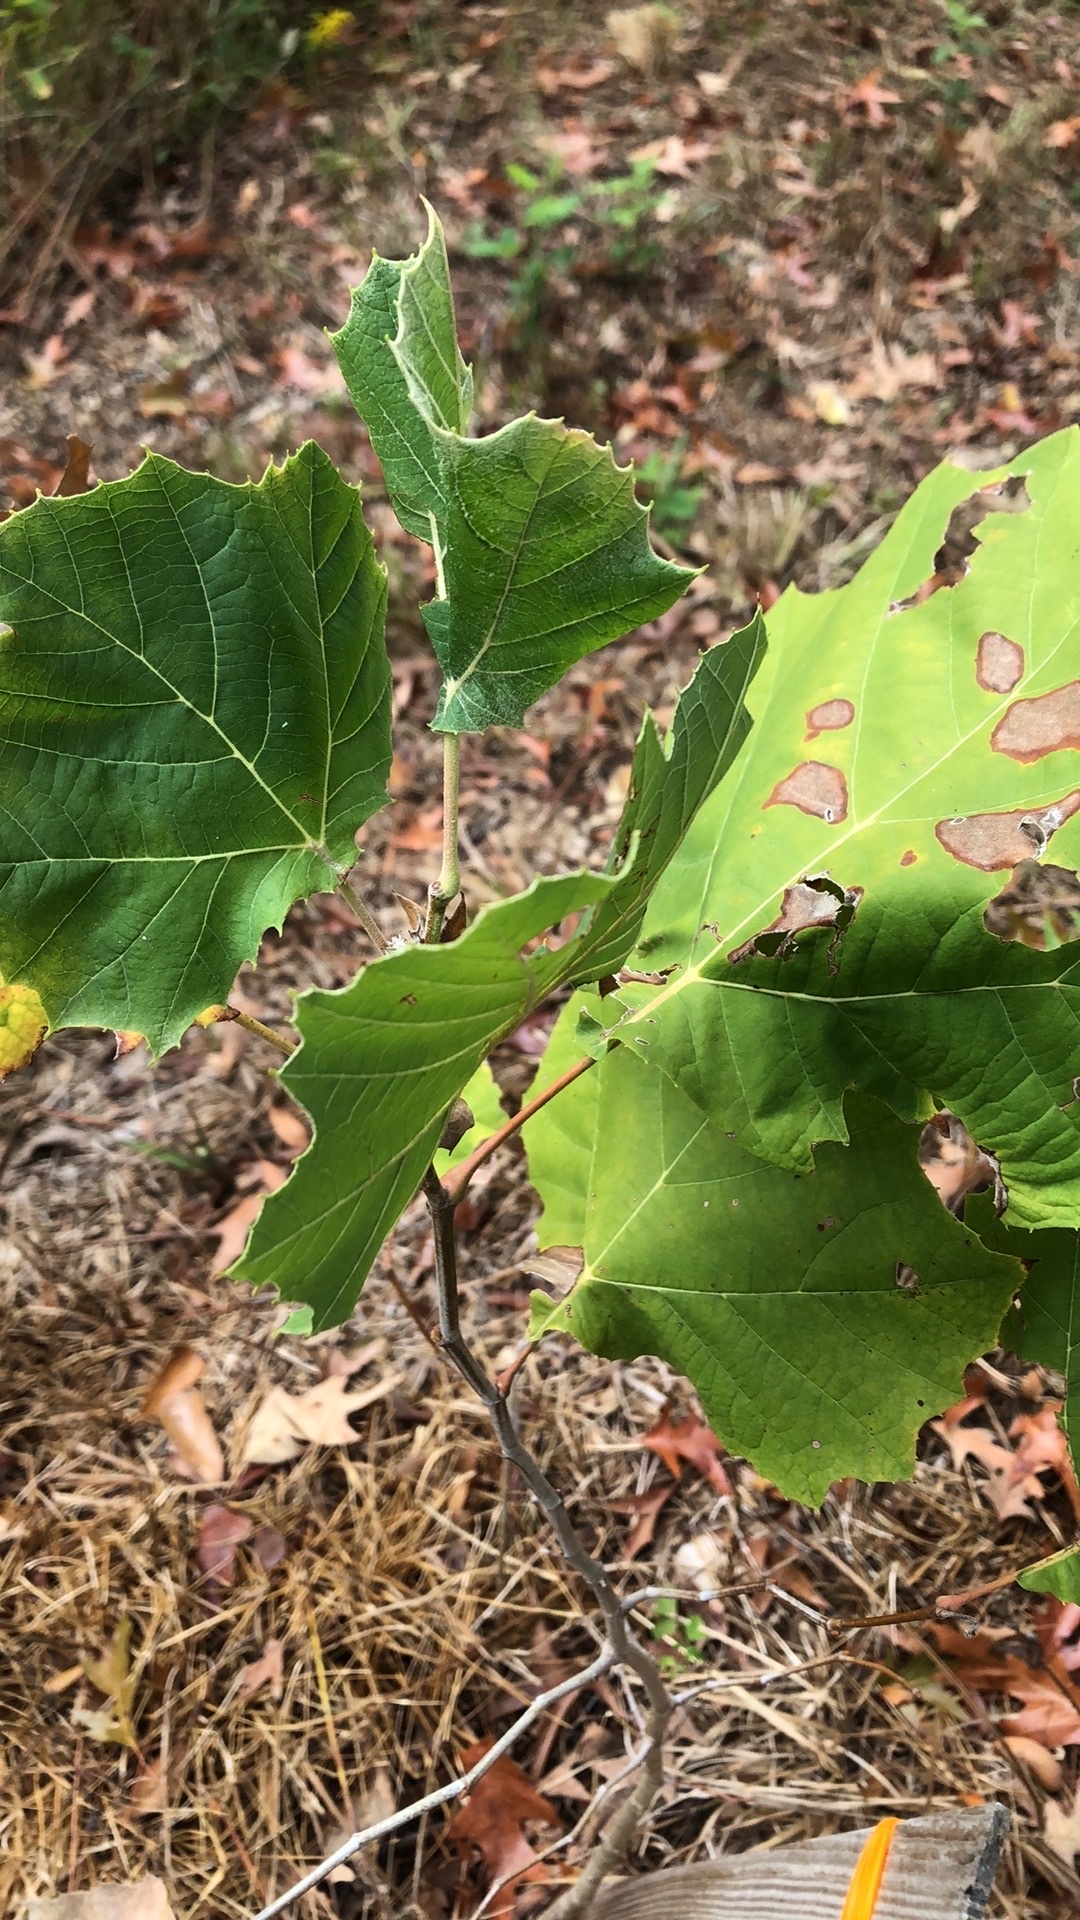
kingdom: Plantae
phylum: Tracheophyta
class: Magnoliopsida
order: Proteales
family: Platanaceae
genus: Platanus
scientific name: Platanus occidentalis
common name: American sycamore
